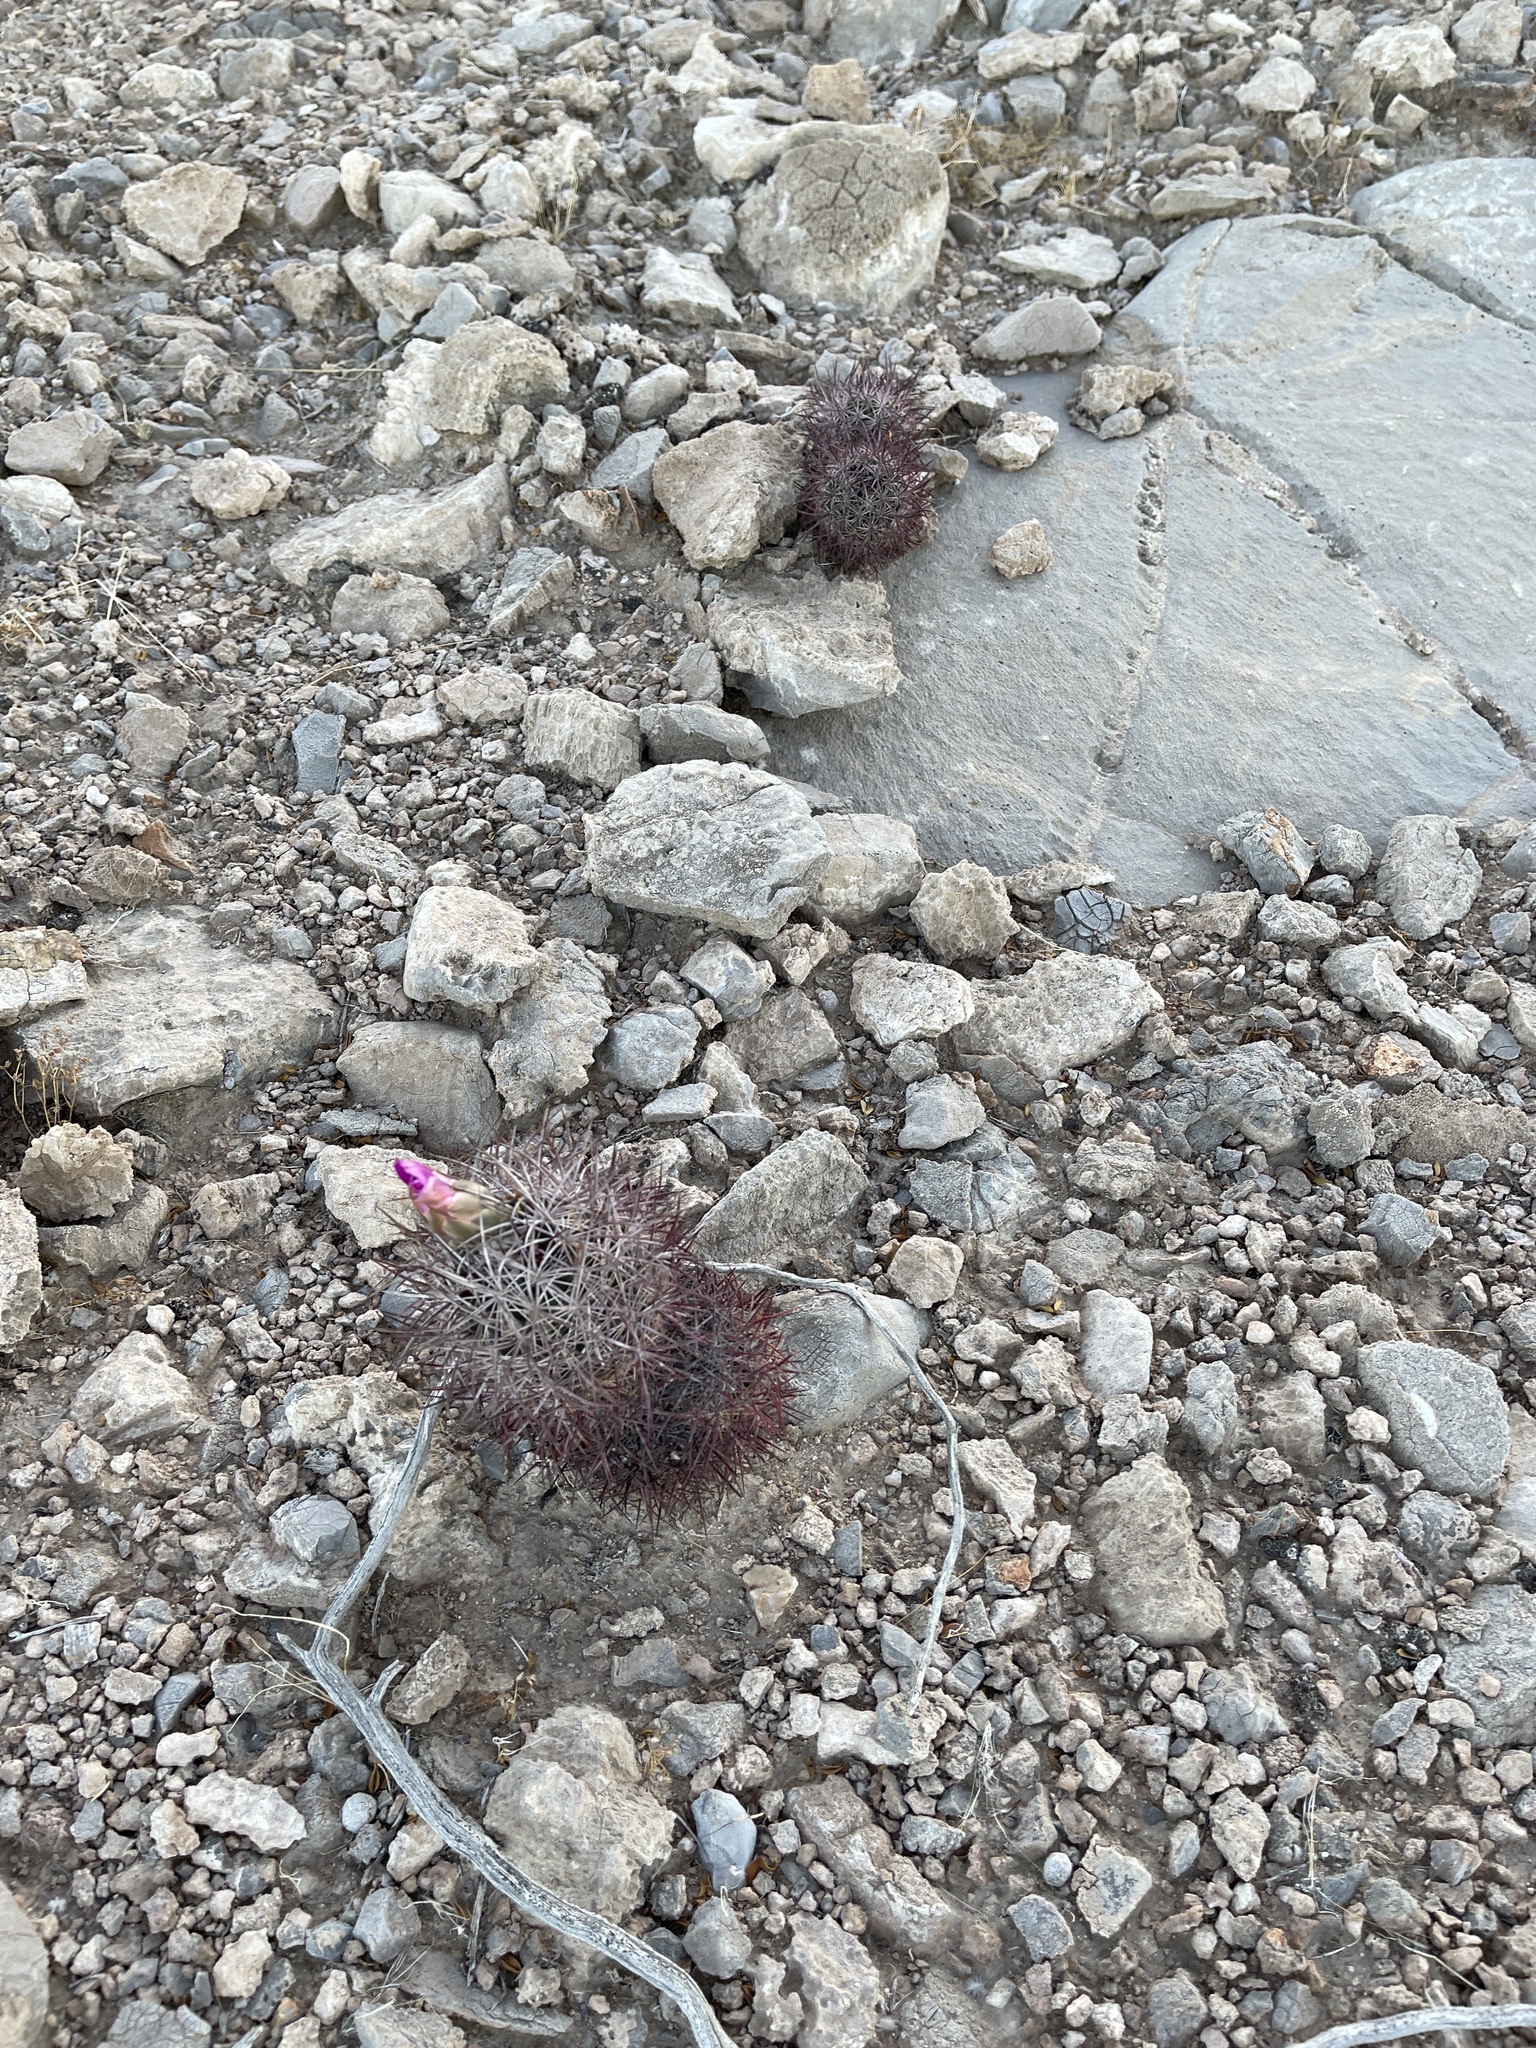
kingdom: Plantae
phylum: Tracheophyta
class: Magnoliopsida
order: Caryophyllales
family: Cactaceae
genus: Sclerocactus
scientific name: Sclerocactus johnsonii
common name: Eight-spine fishhook cactus
